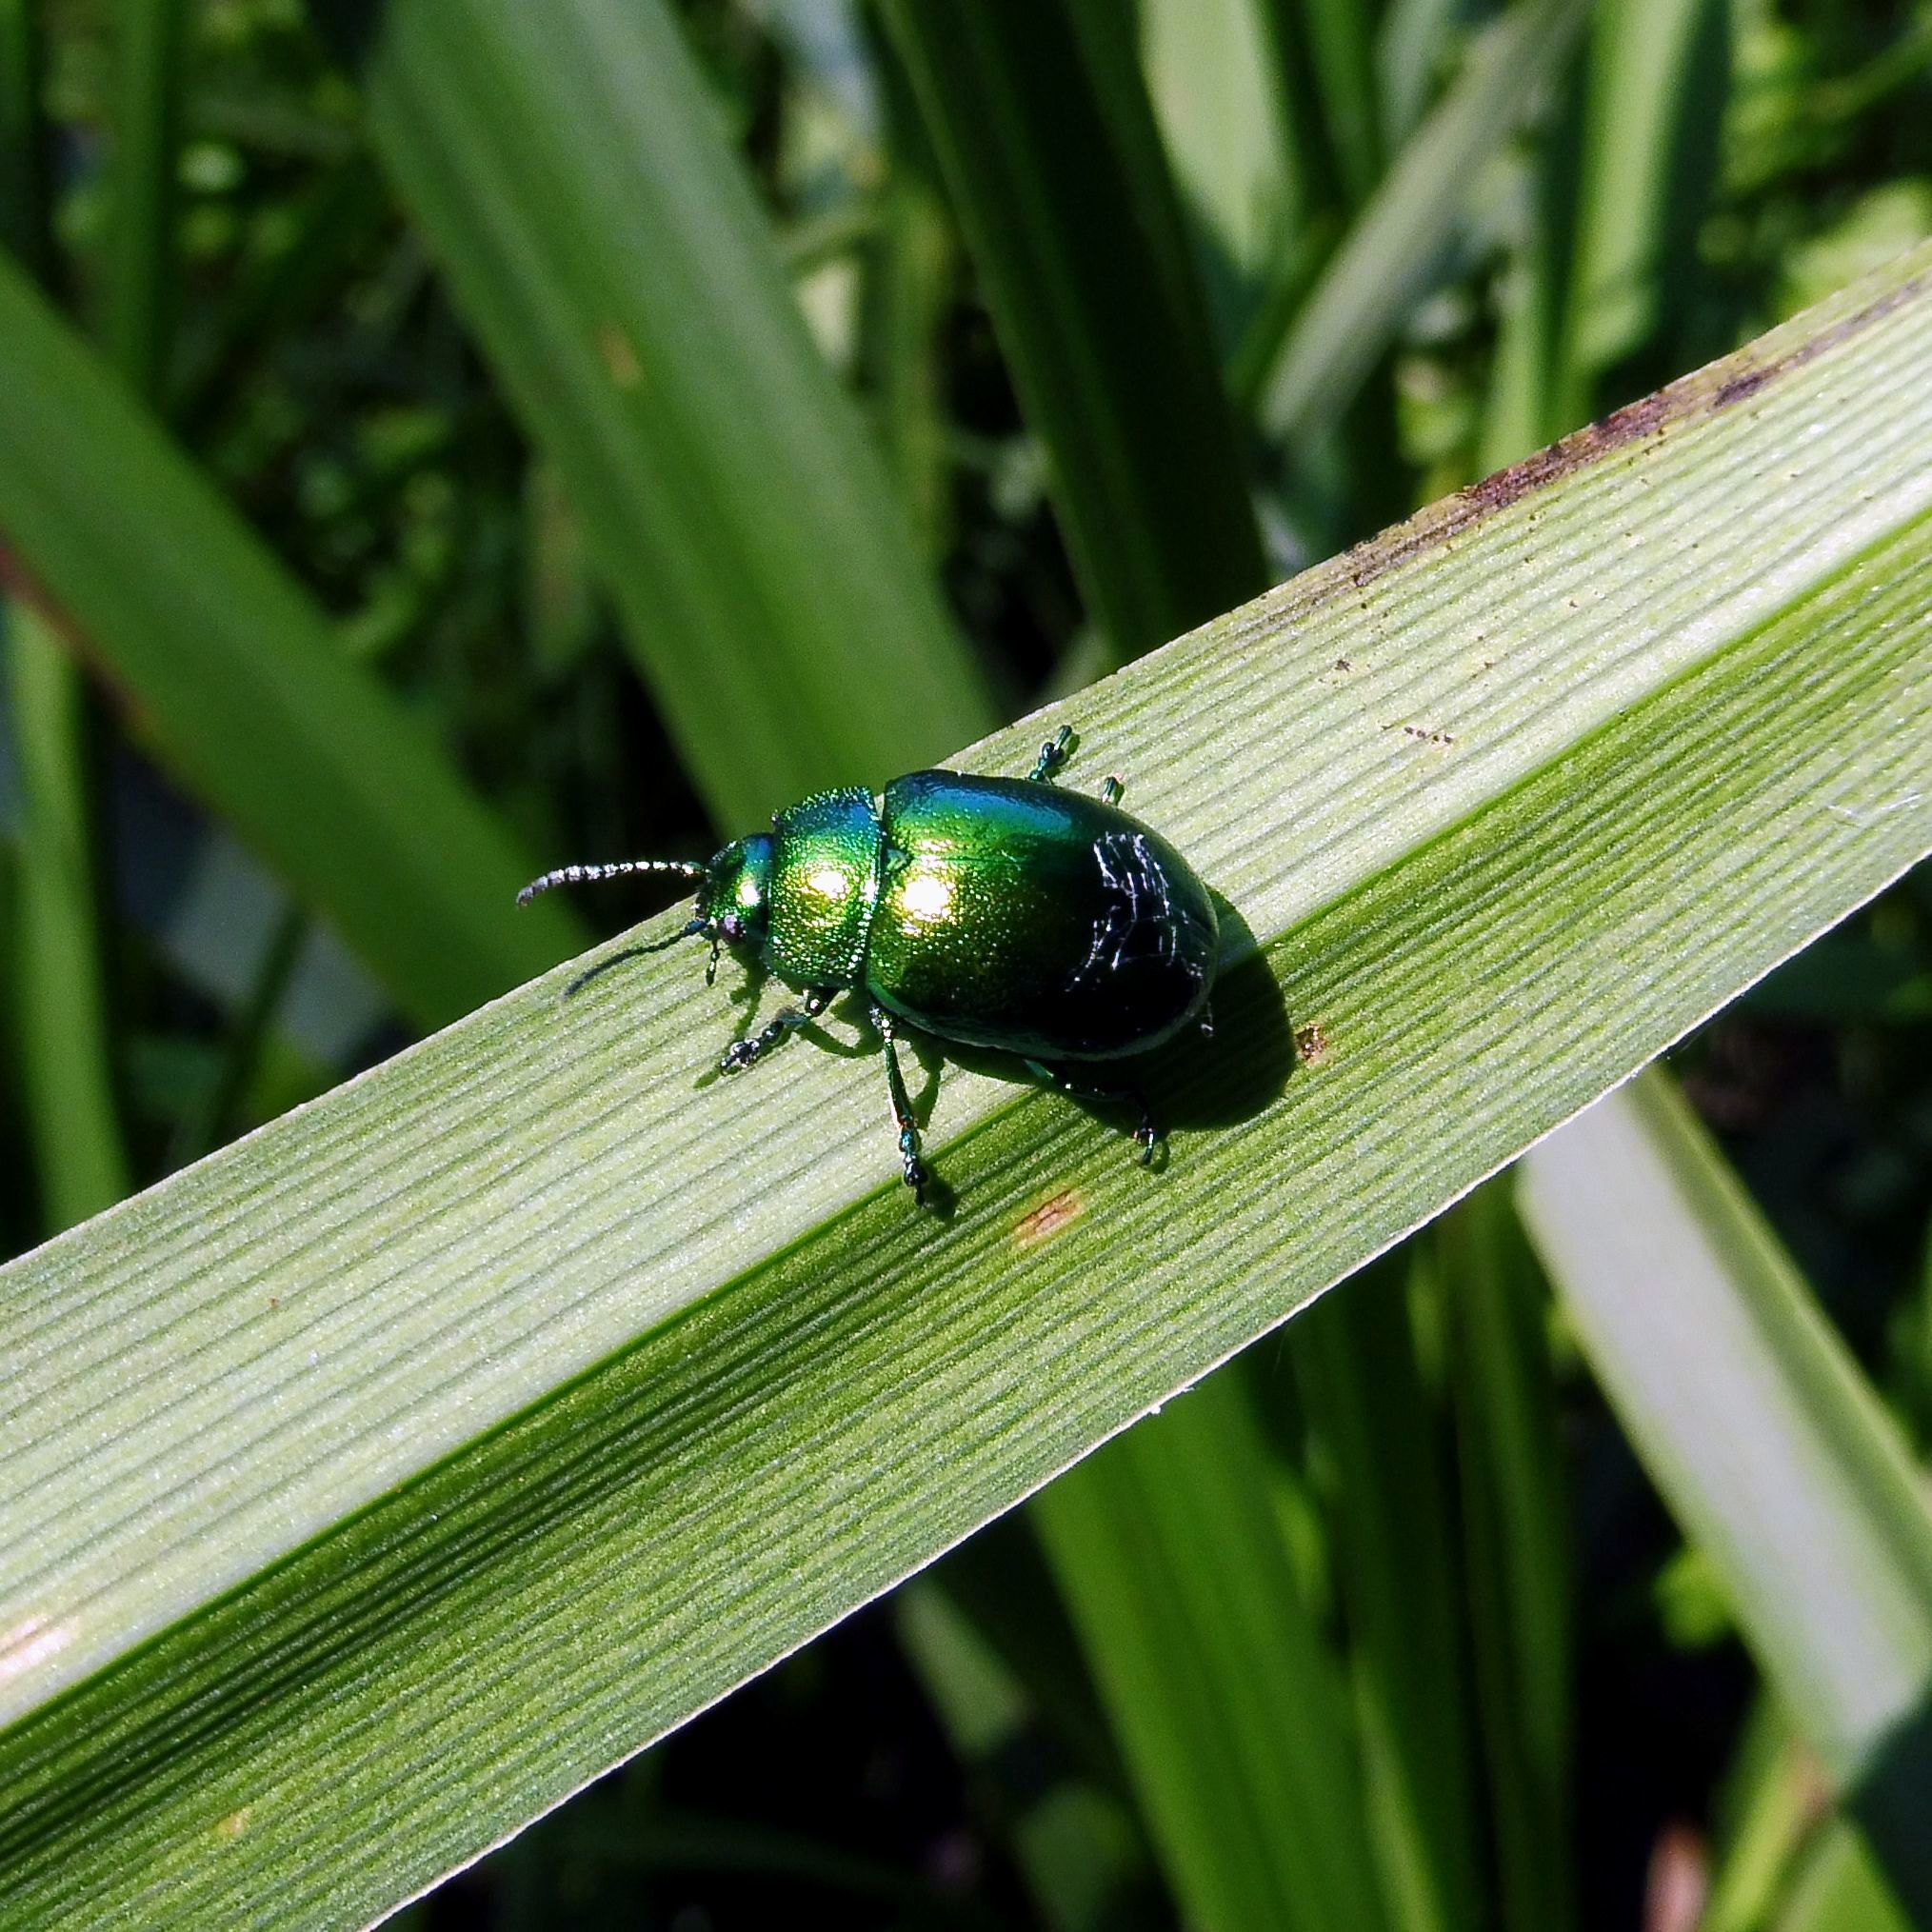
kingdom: Animalia
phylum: Arthropoda
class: Insecta
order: Coleoptera
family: Chrysomelidae
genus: Chrysolina
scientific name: Chrysolina herbacea
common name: Mint leaf beatle
